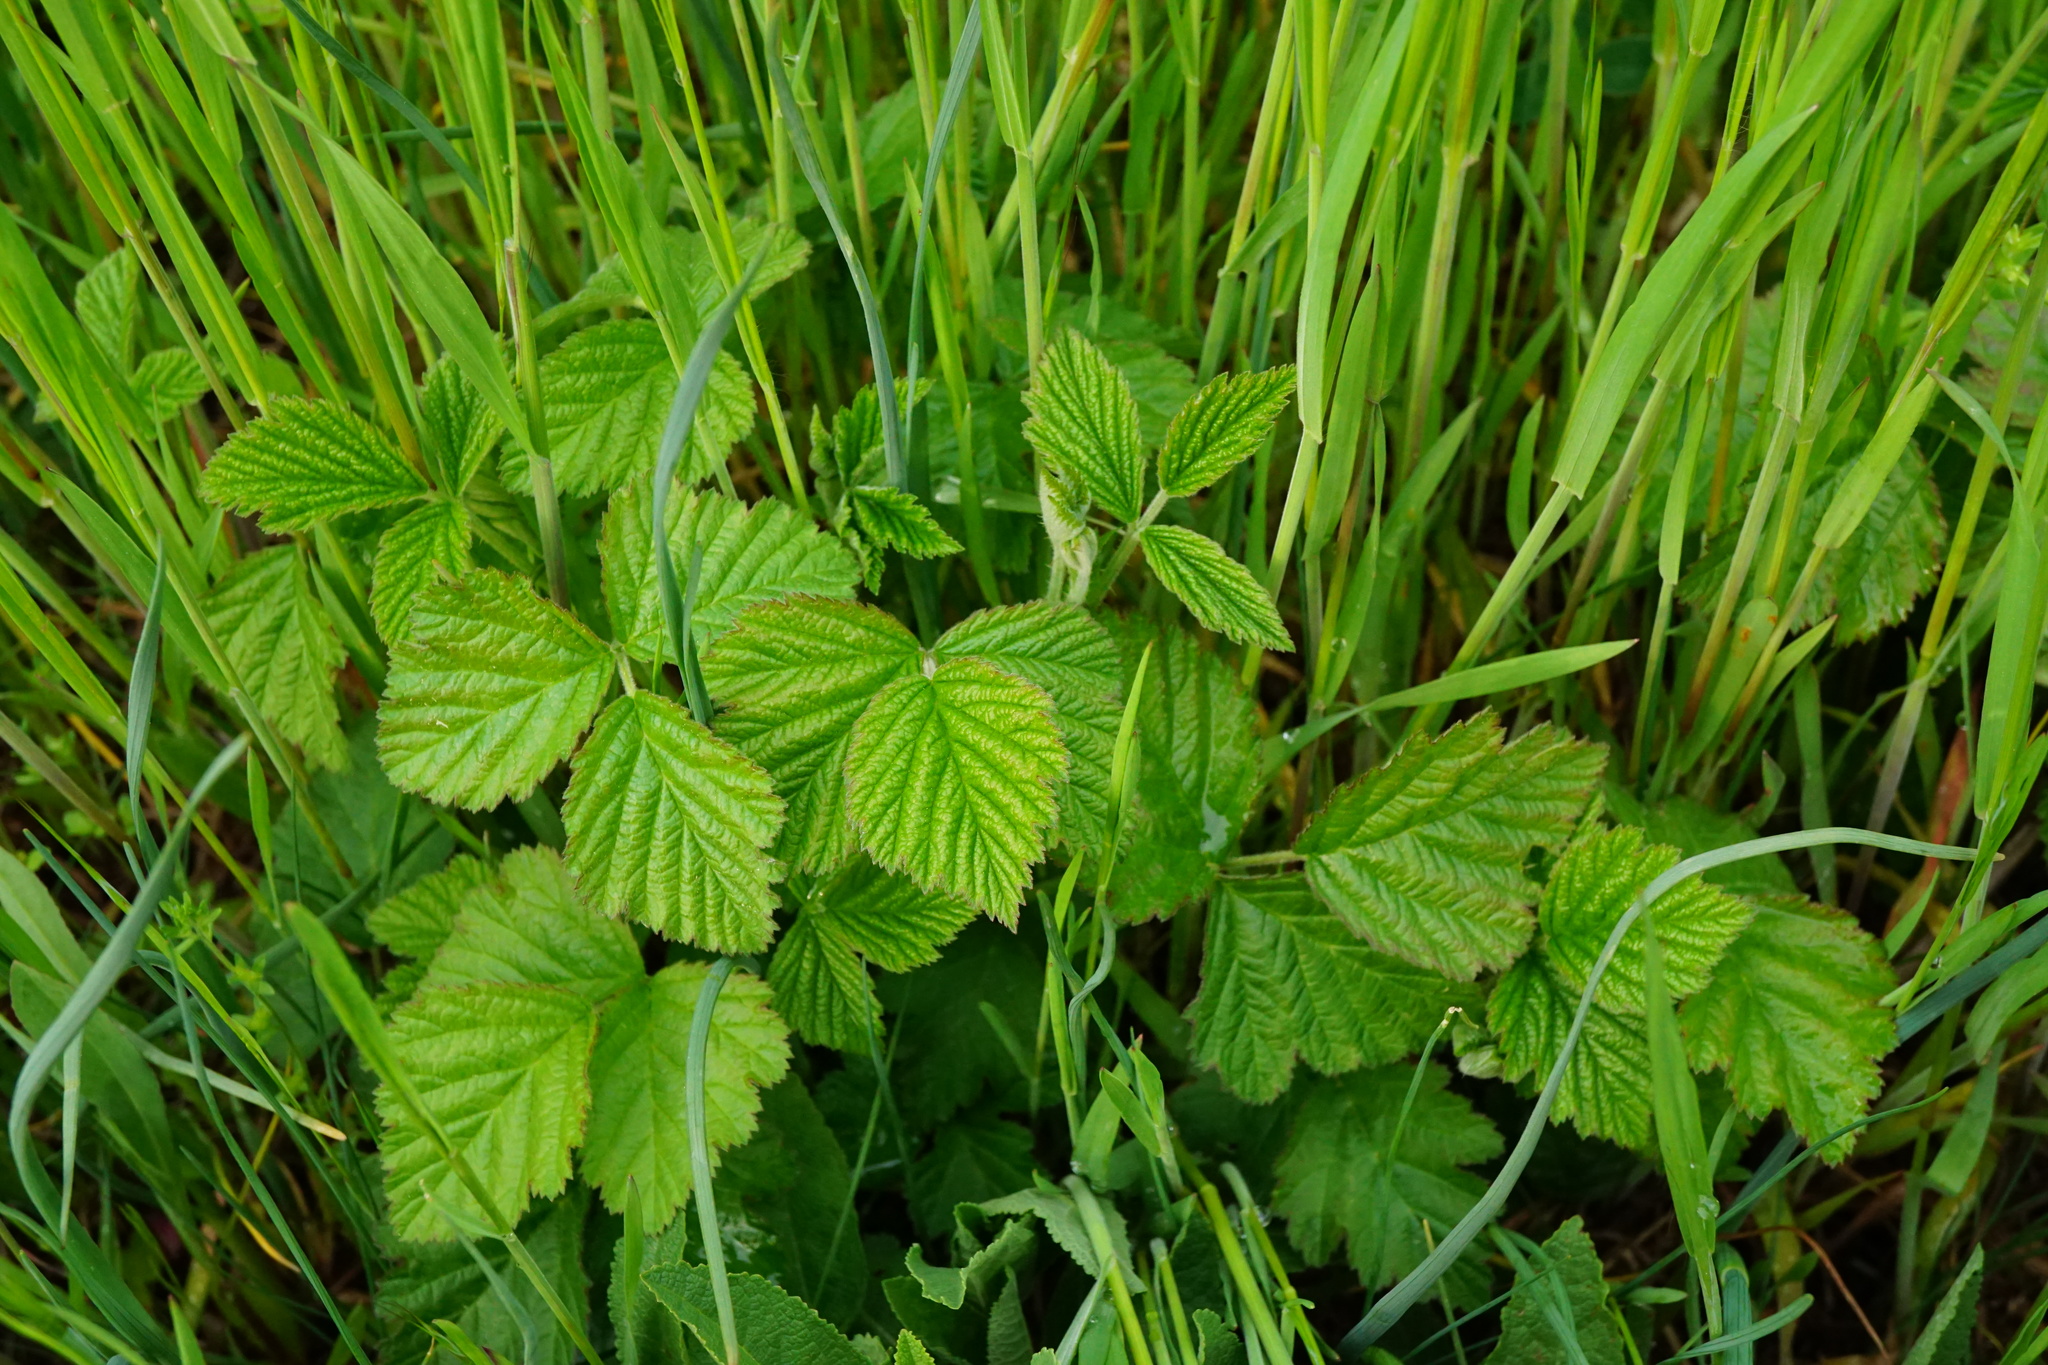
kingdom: Plantae
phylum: Tracheophyta
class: Magnoliopsida
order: Rosales
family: Rosaceae
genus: Rubus
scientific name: Rubus caesius
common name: Dewberry
